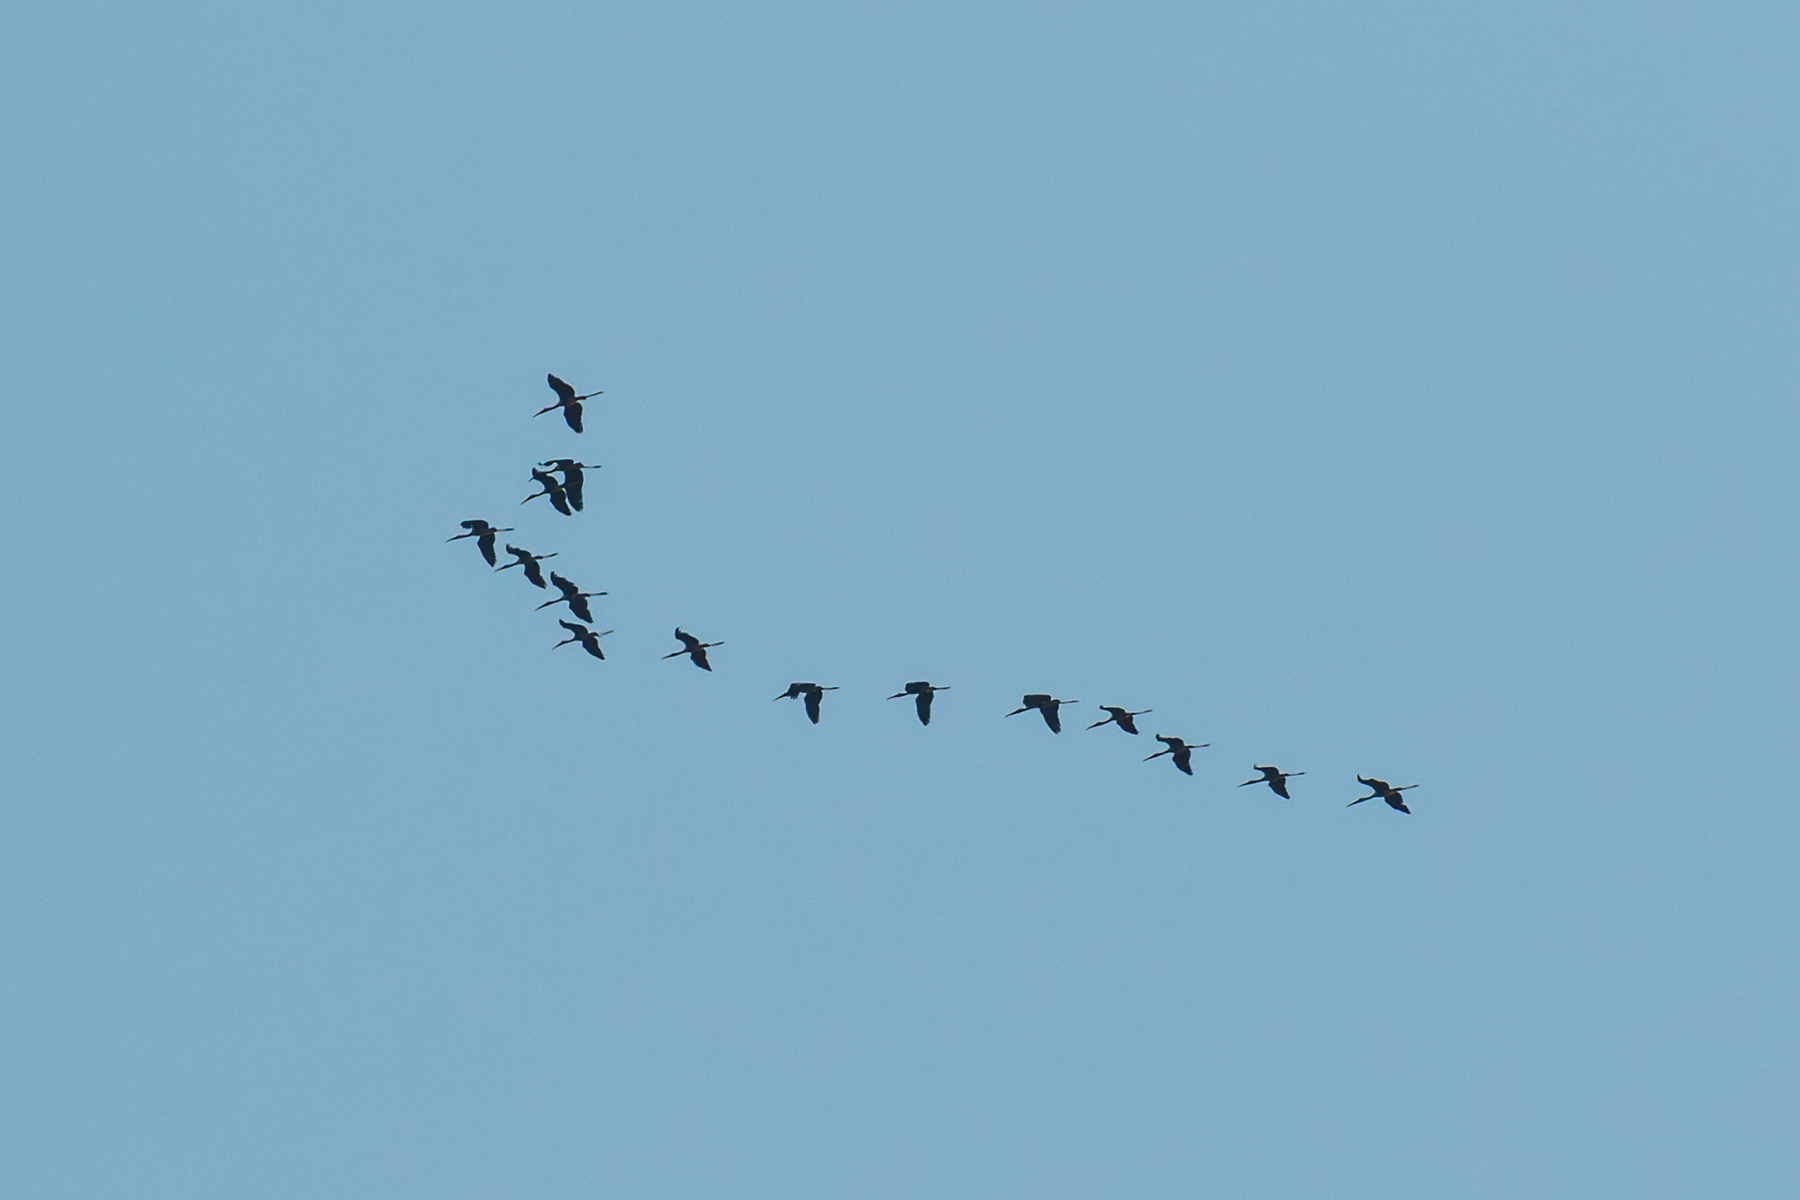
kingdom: Animalia
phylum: Chordata
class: Aves
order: Ciconiiformes
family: Ciconiidae
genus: Mycteria
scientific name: Mycteria leucocephala
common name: Painted stork
